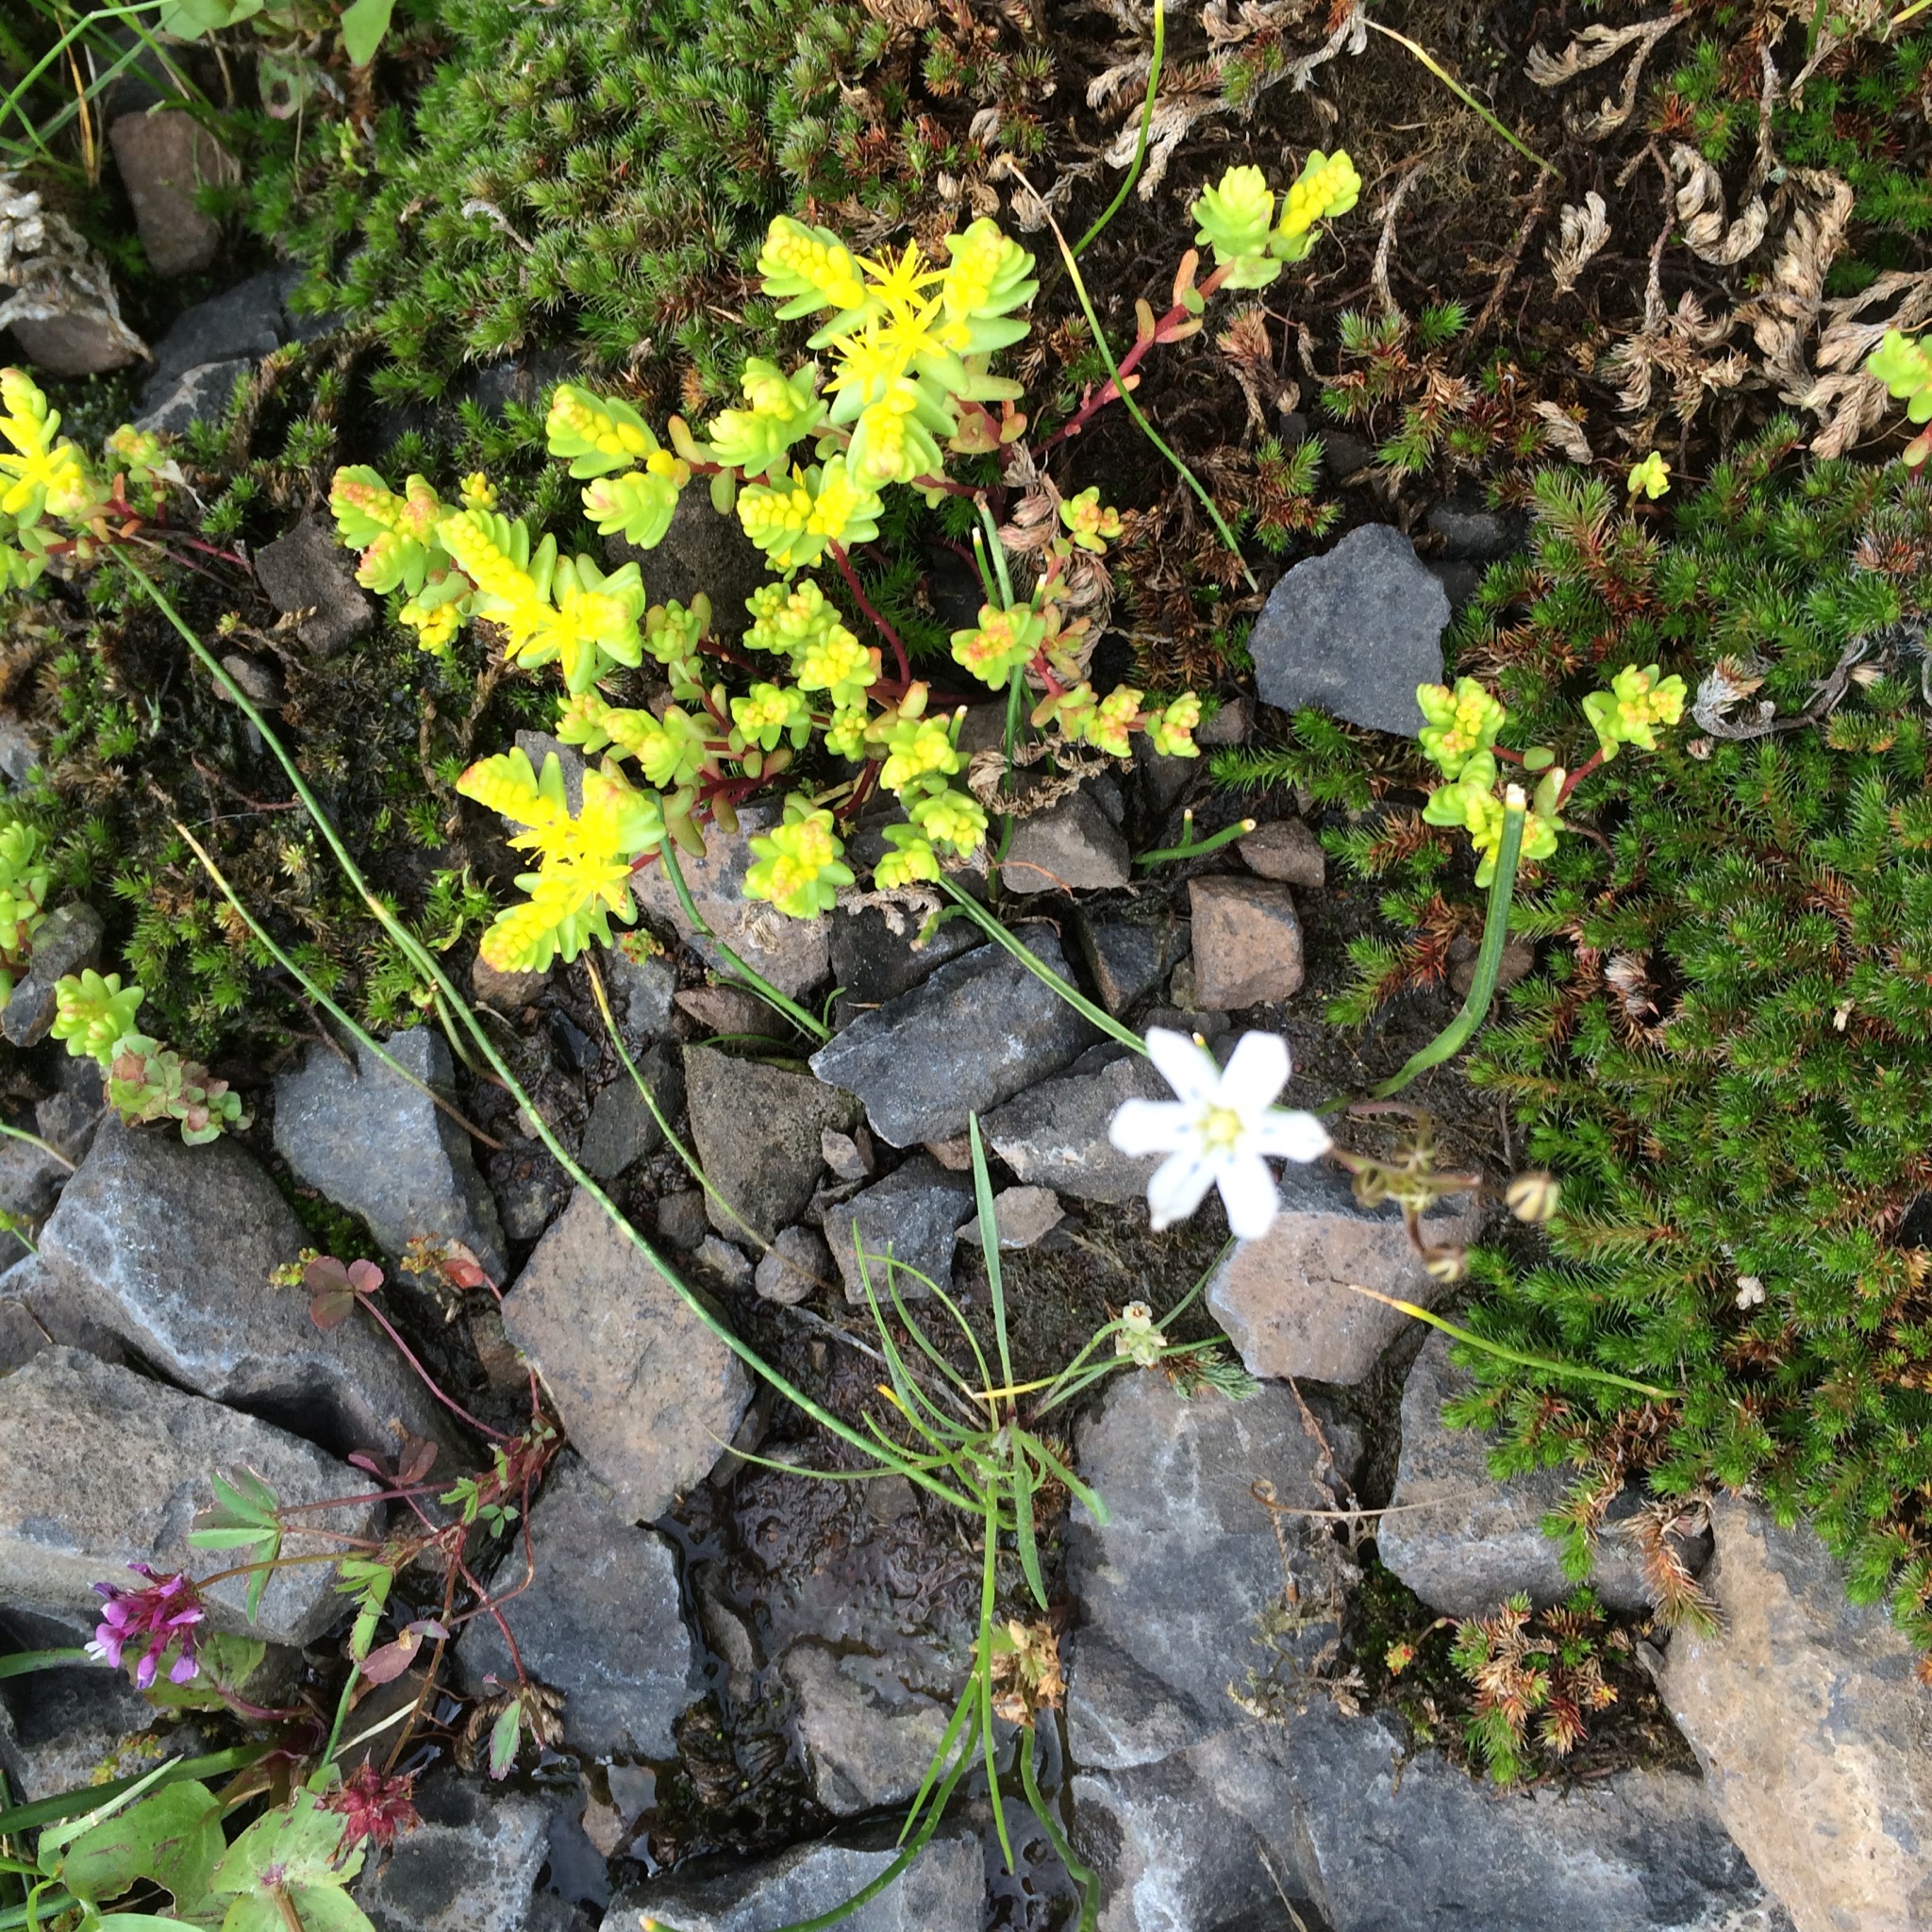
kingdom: Plantae
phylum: Tracheophyta
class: Magnoliopsida
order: Saxifragales
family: Crassulaceae
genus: Sedella
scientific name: Sedella pumila
